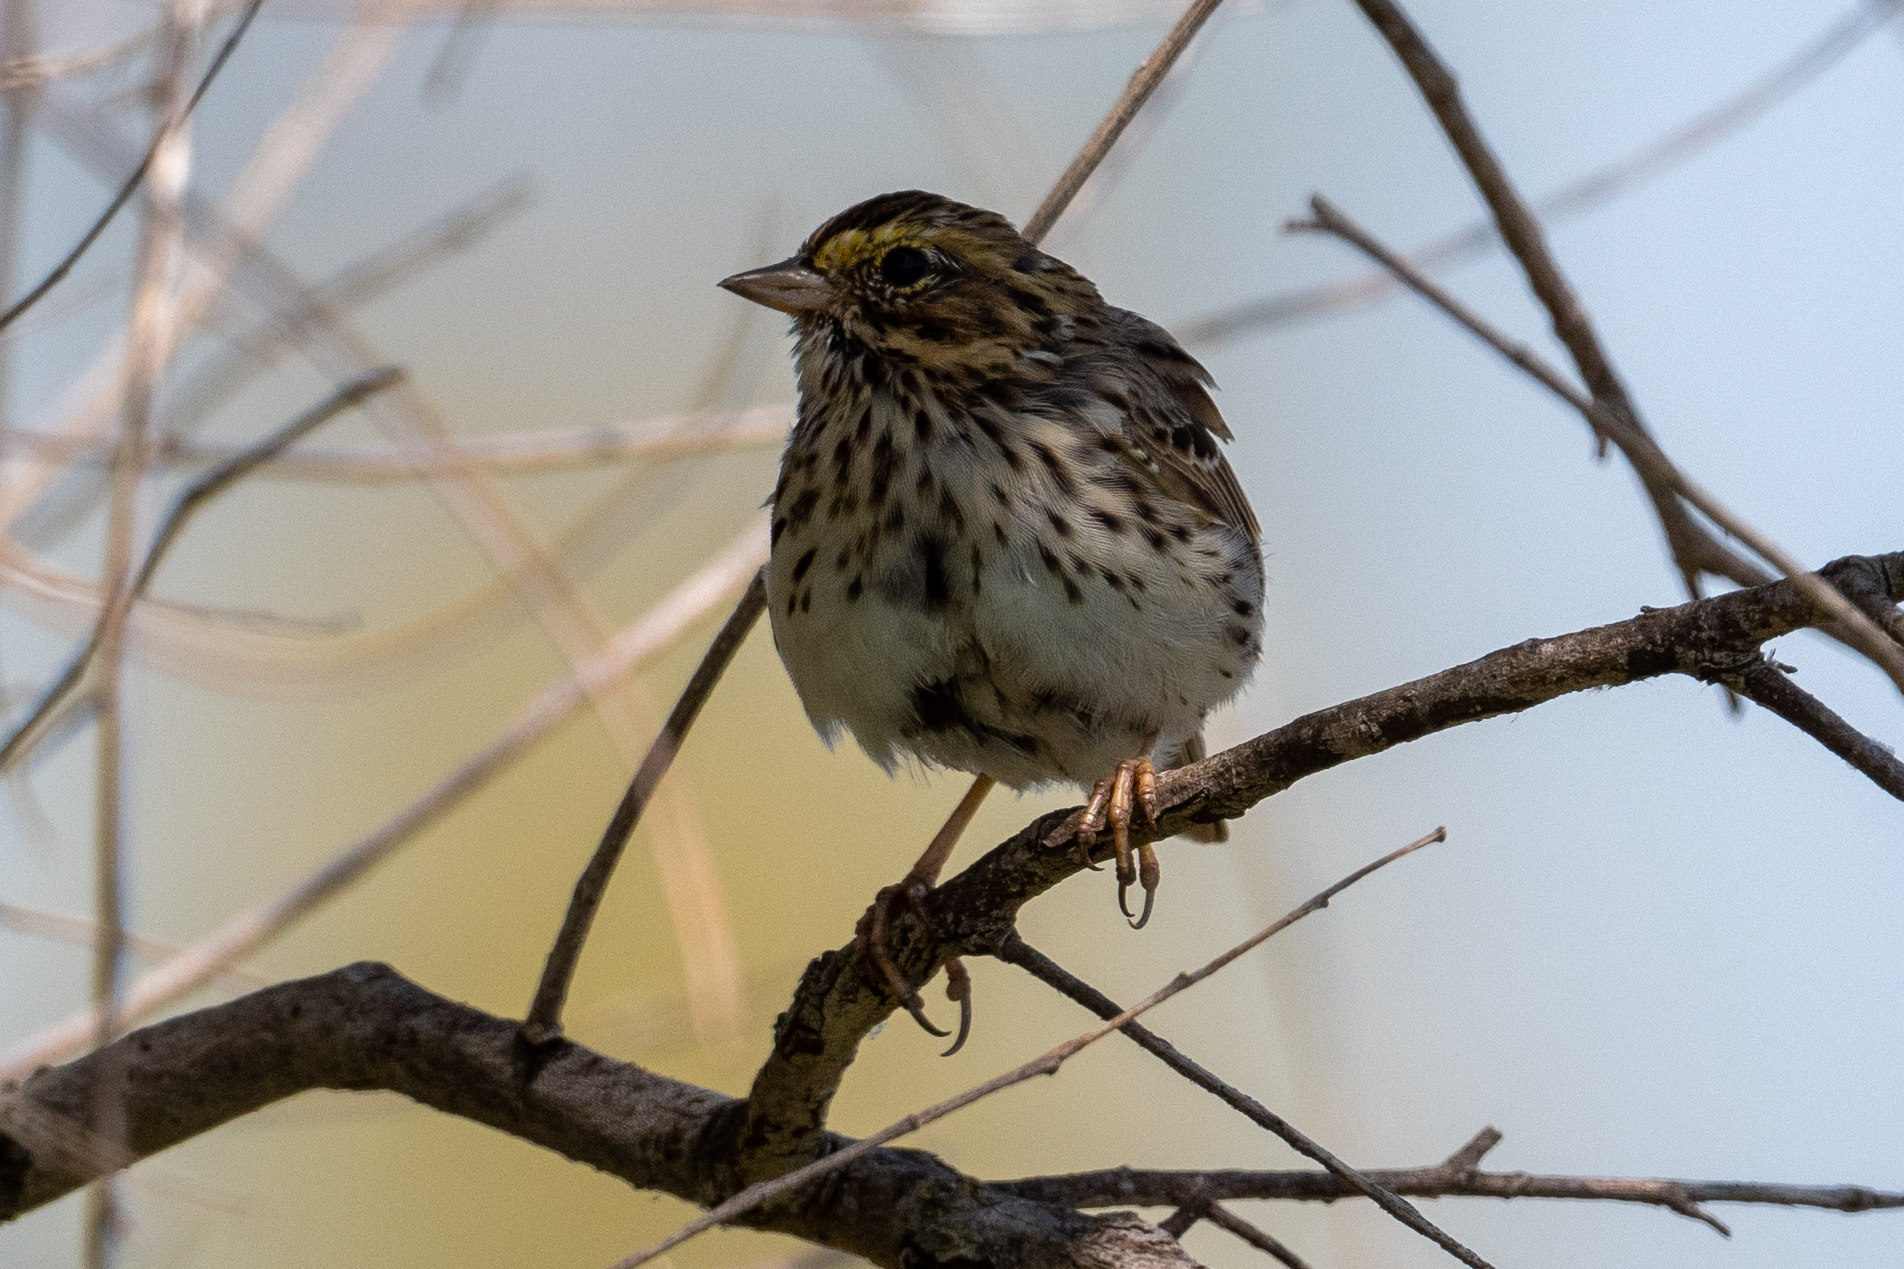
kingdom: Animalia
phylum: Chordata
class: Aves
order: Passeriformes
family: Passerellidae
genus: Passerculus
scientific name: Passerculus sandwichensis
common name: Savannah sparrow
